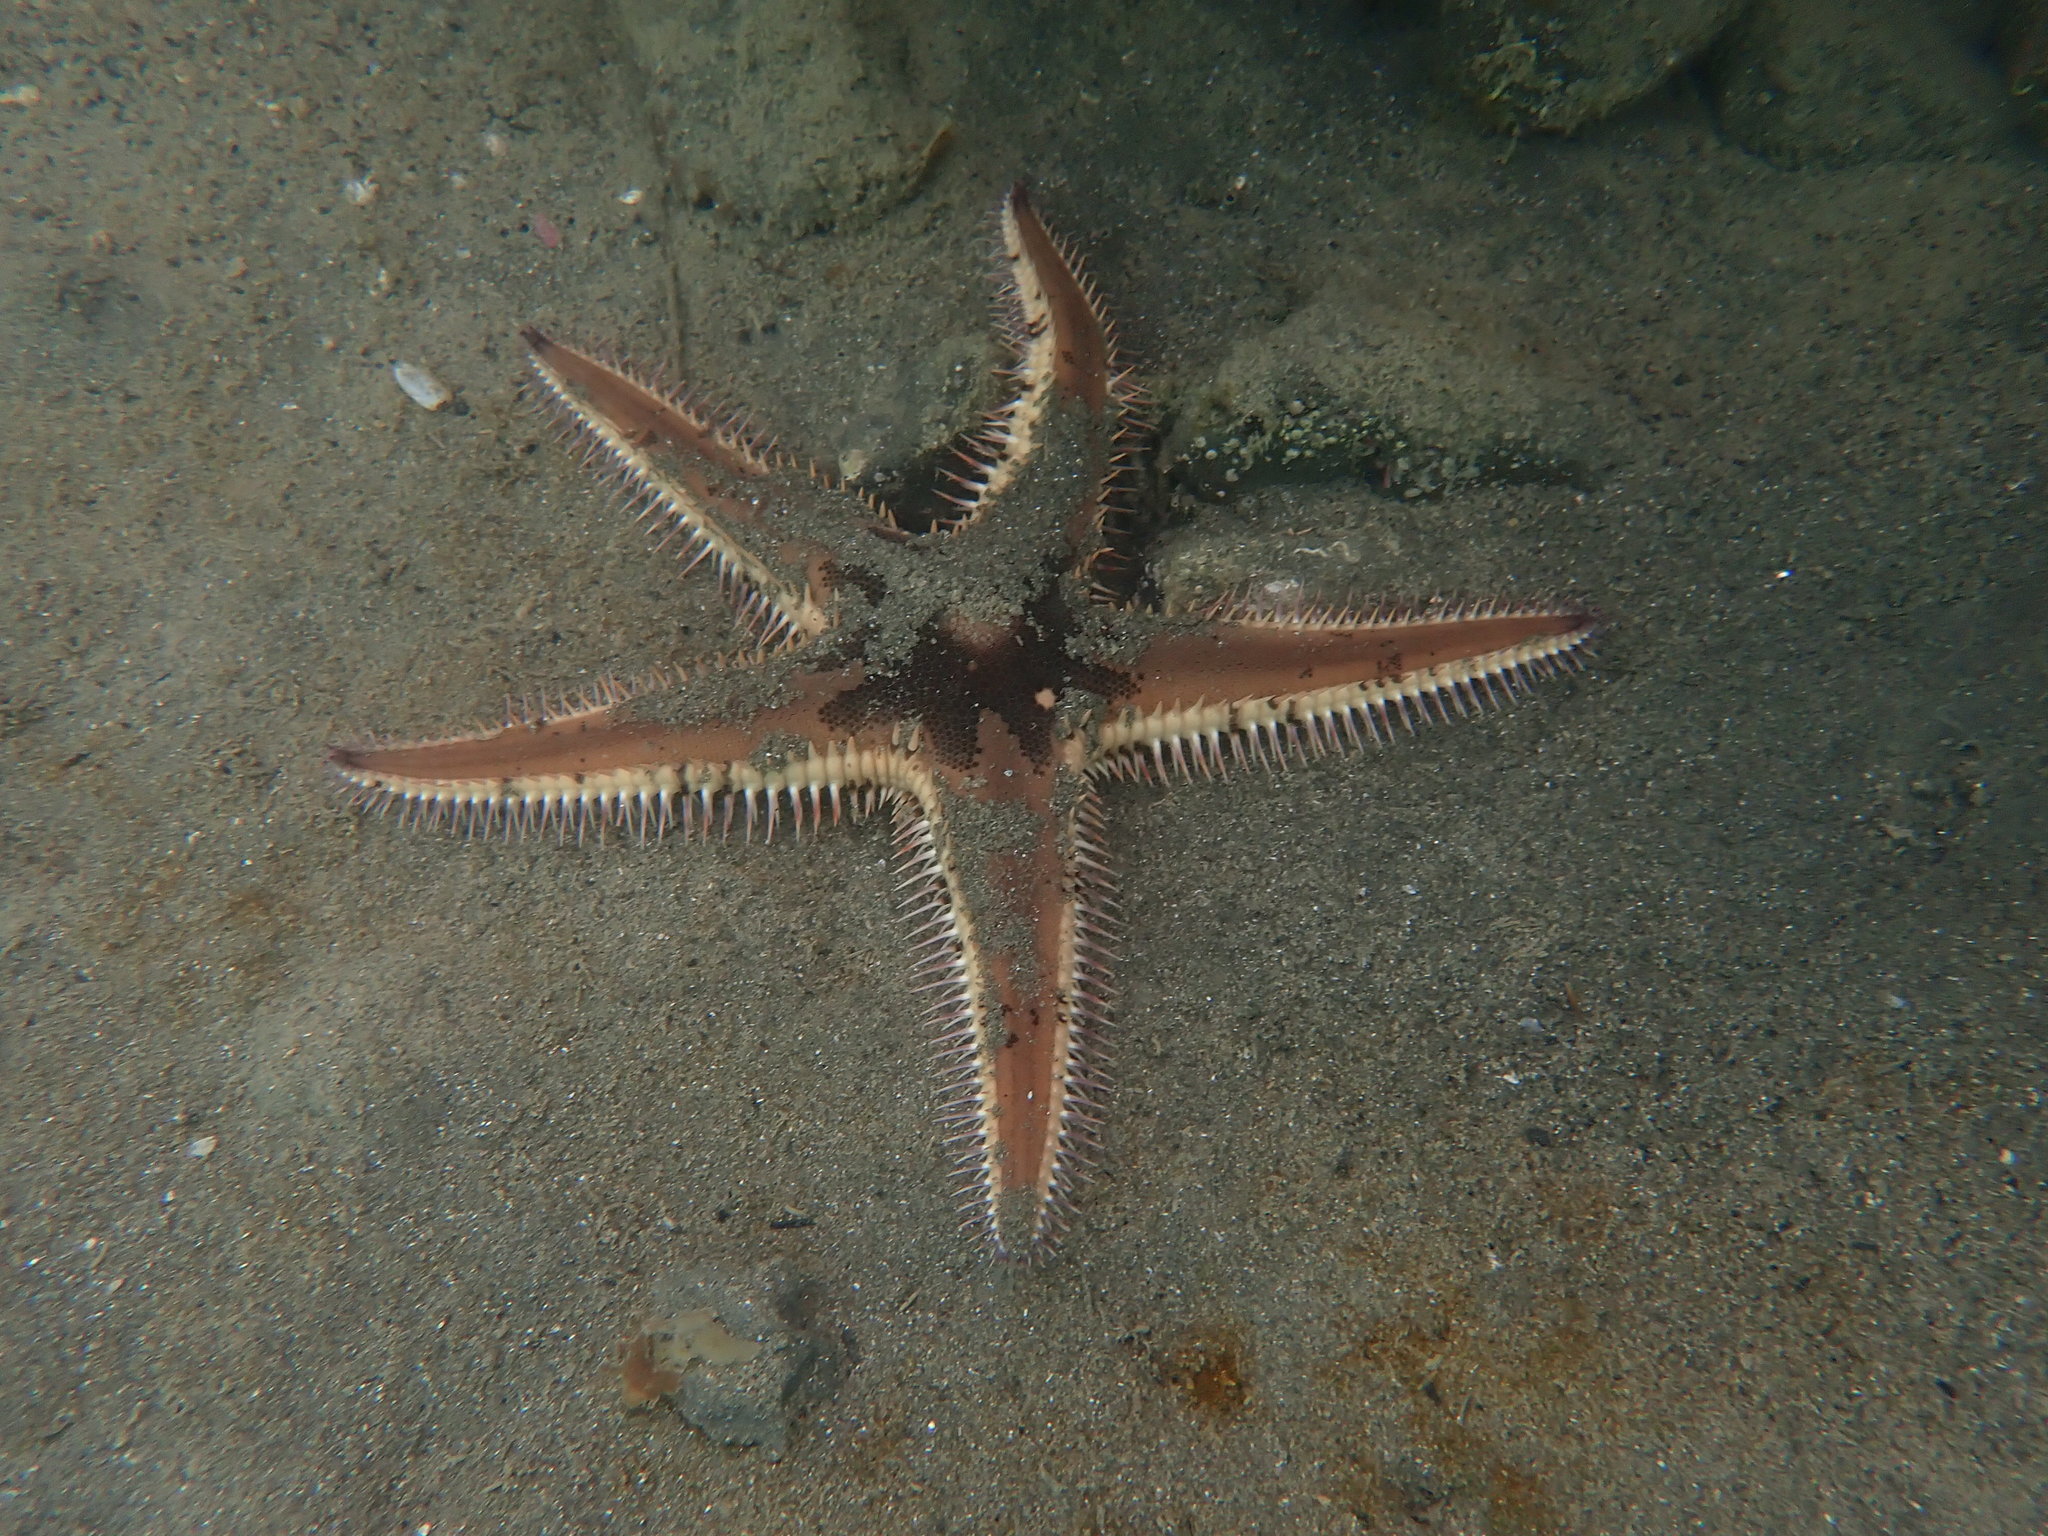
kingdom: Animalia
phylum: Echinodermata
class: Asteroidea
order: Paxillosida
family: Astropectinidae
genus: Astropecten
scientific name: Astropecten polyacanthus
